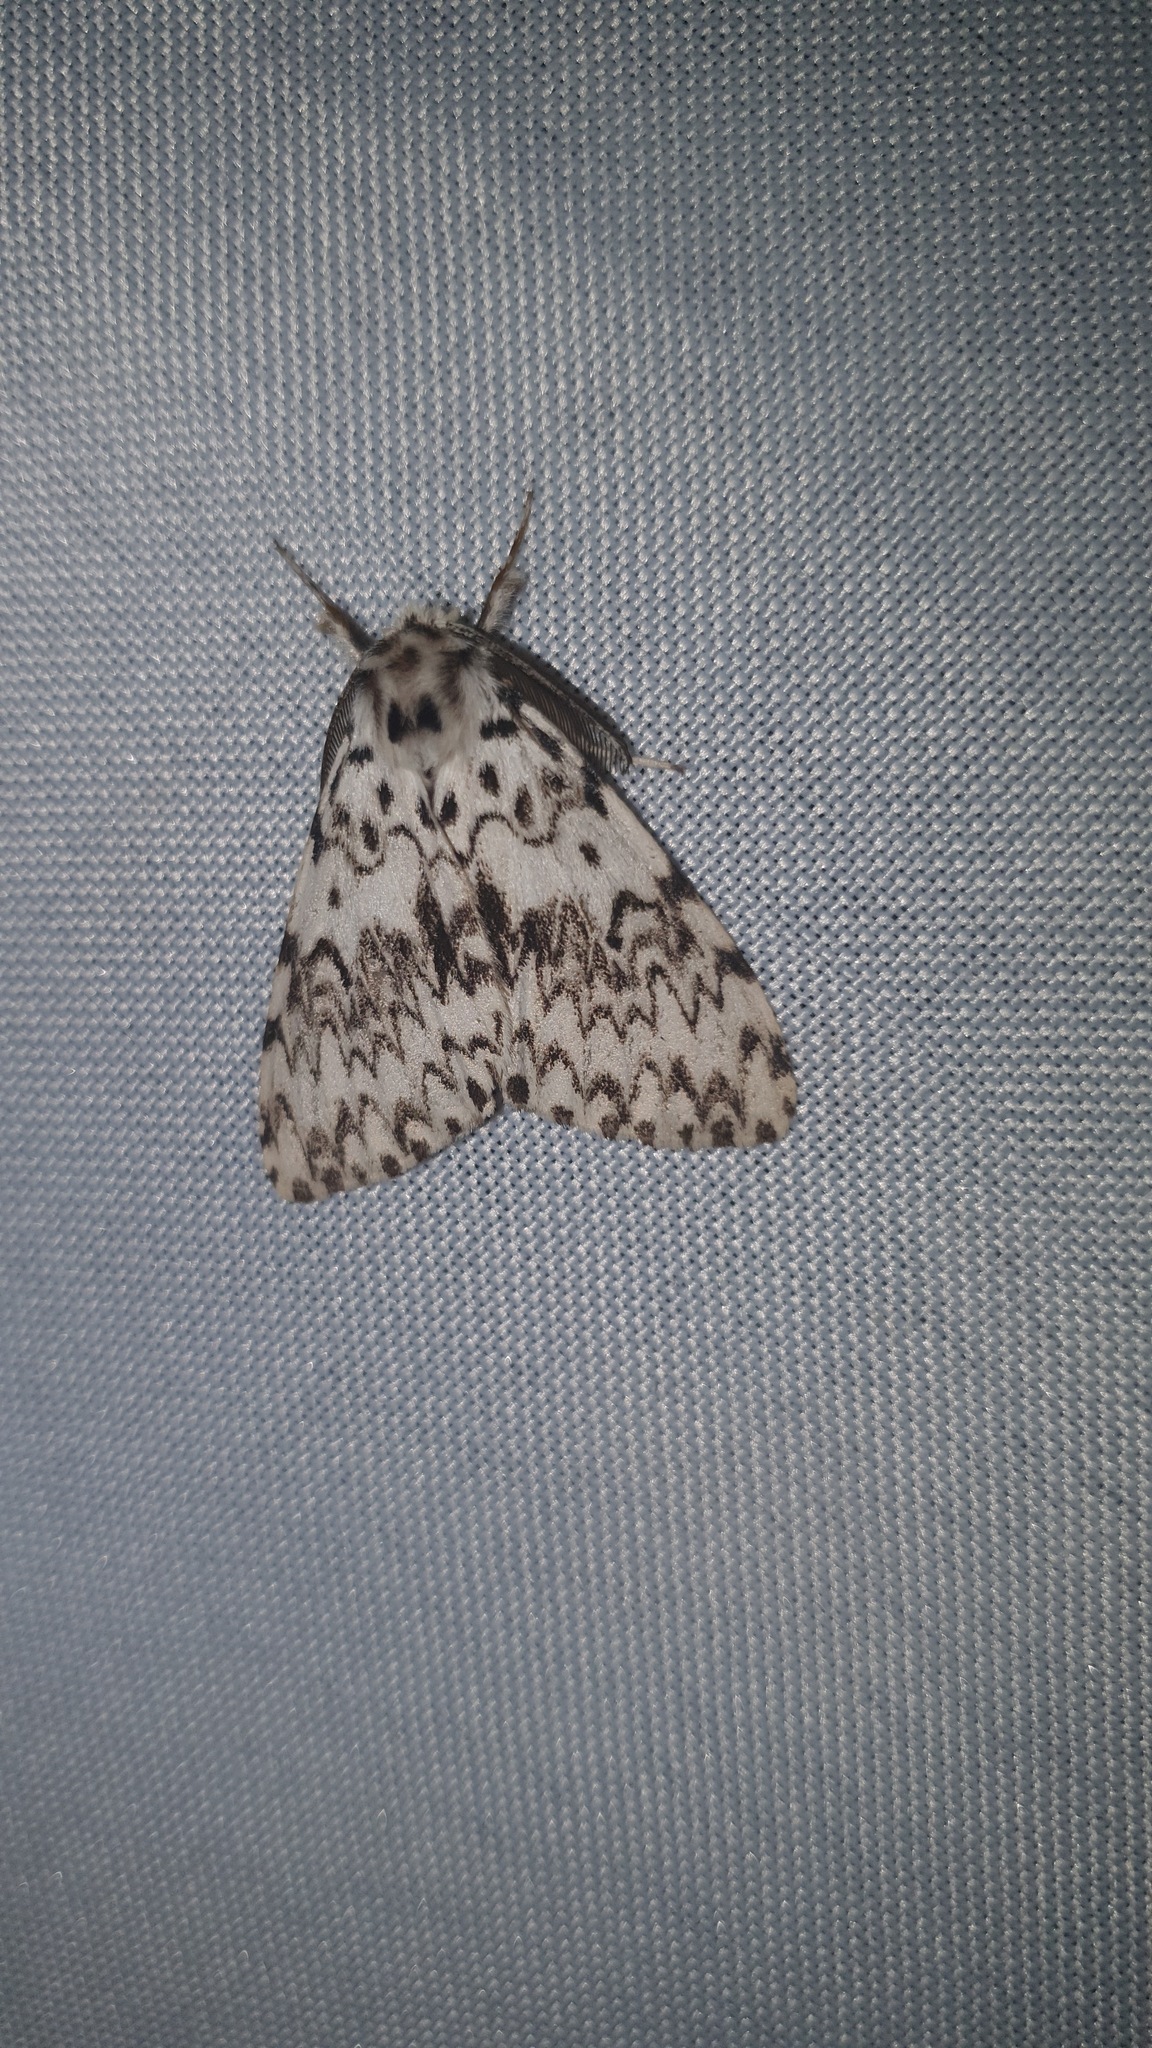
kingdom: Animalia
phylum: Arthropoda
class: Insecta
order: Lepidoptera
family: Erebidae
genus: Lymantria
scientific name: Lymantria monacha
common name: Black arches
